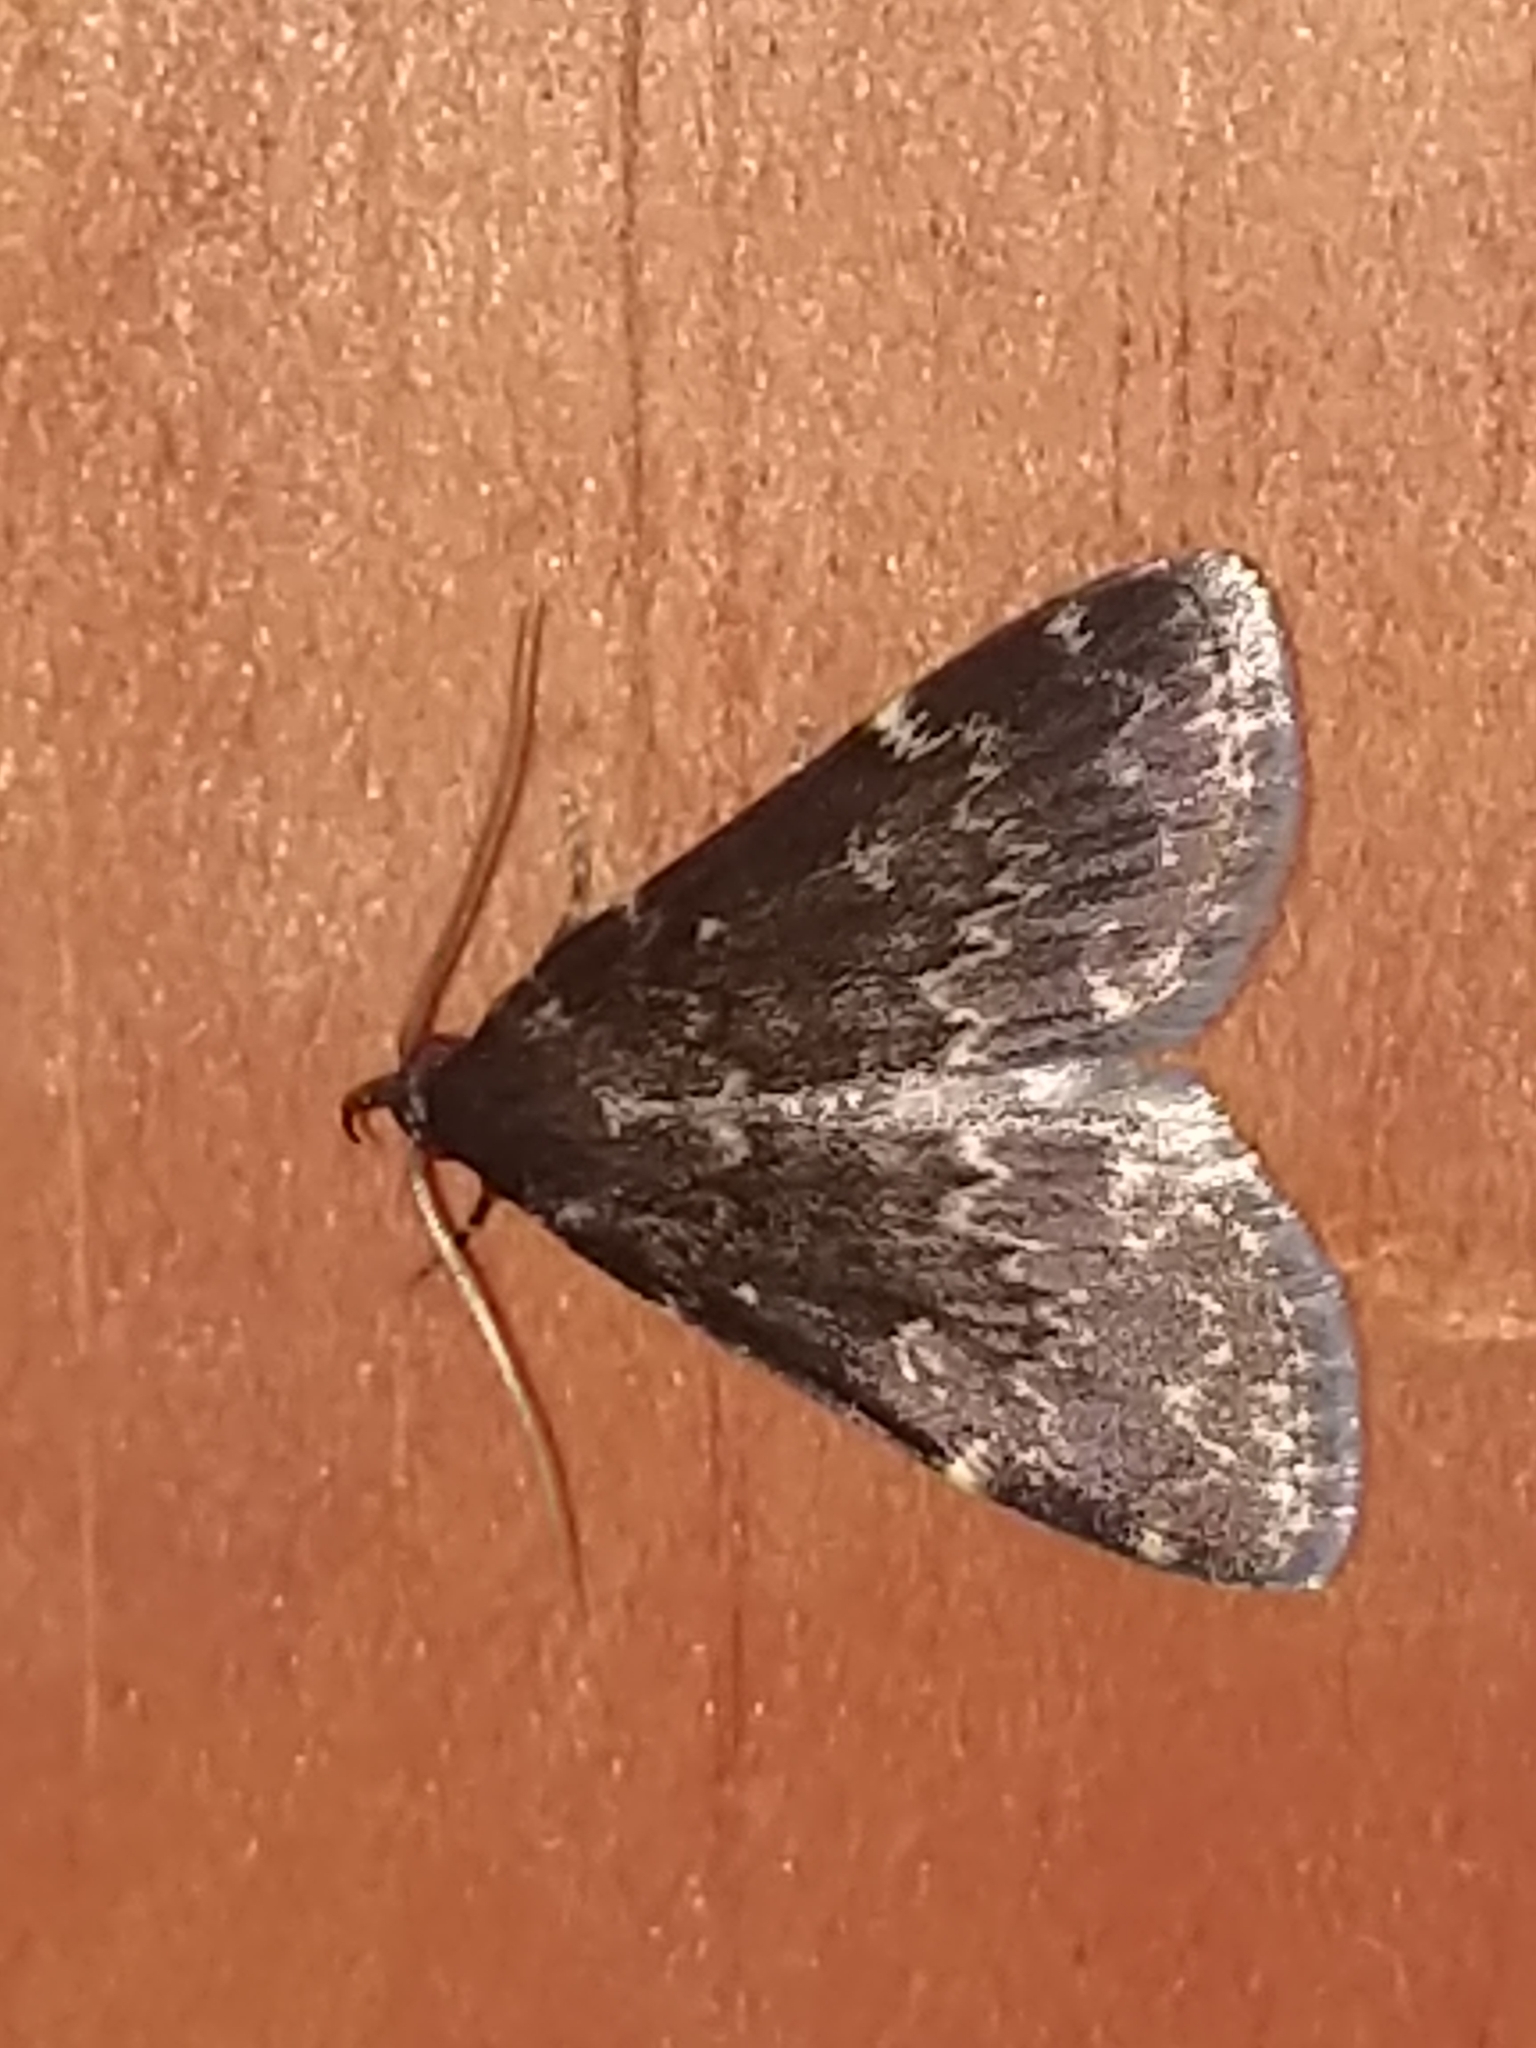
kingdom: Animalia
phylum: Arthropoda
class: Insecta
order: Lepidoptera
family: Erebidae
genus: Idia
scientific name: Idia lubricalis
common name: Twin-striped tabby
